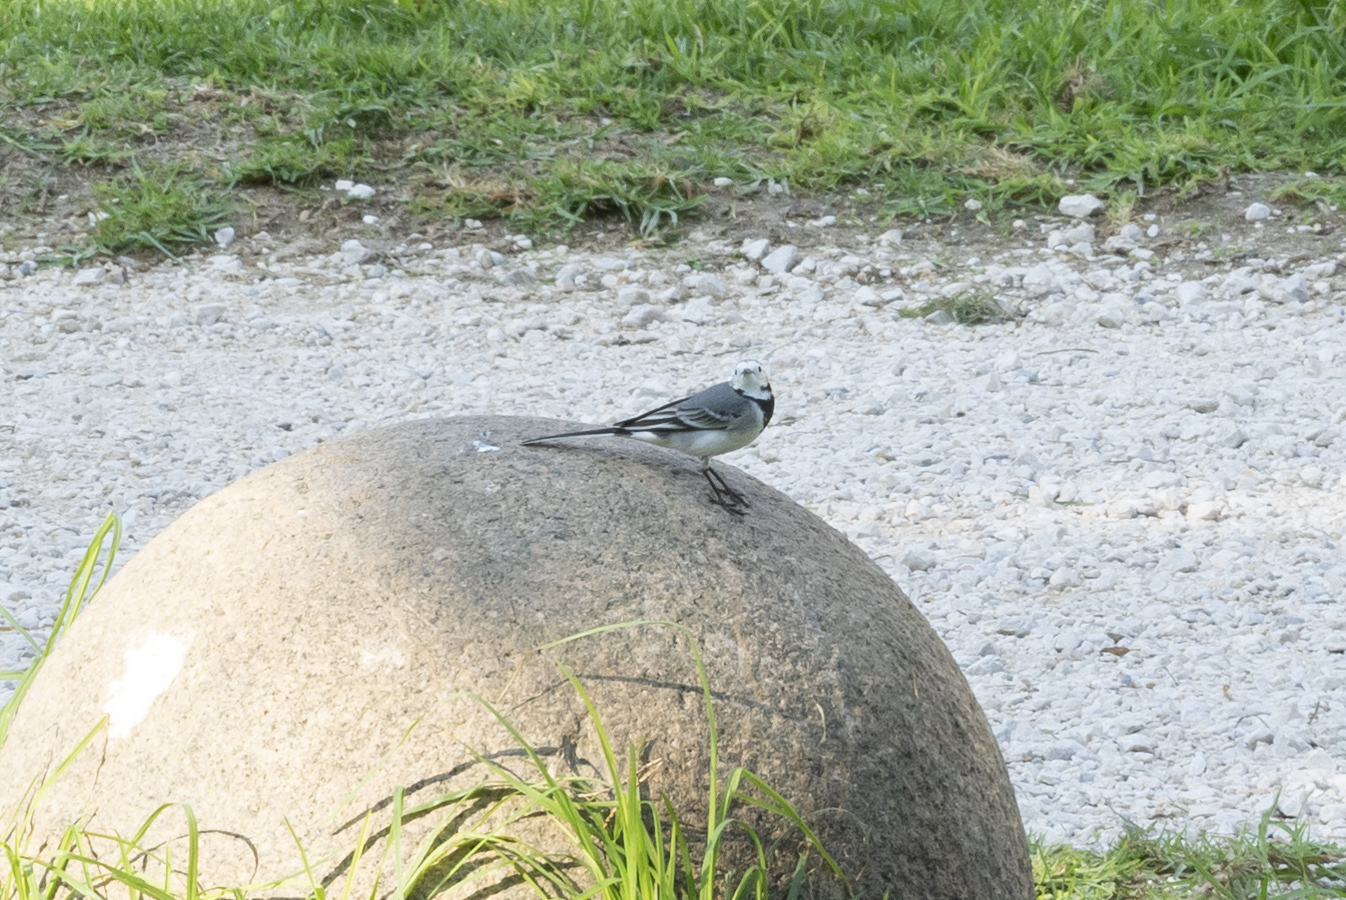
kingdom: Animalia
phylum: Chordata
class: Aves
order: Passeriformes
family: Motacillidae
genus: Motacilla
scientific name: Motacilla alba
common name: White wagtail
